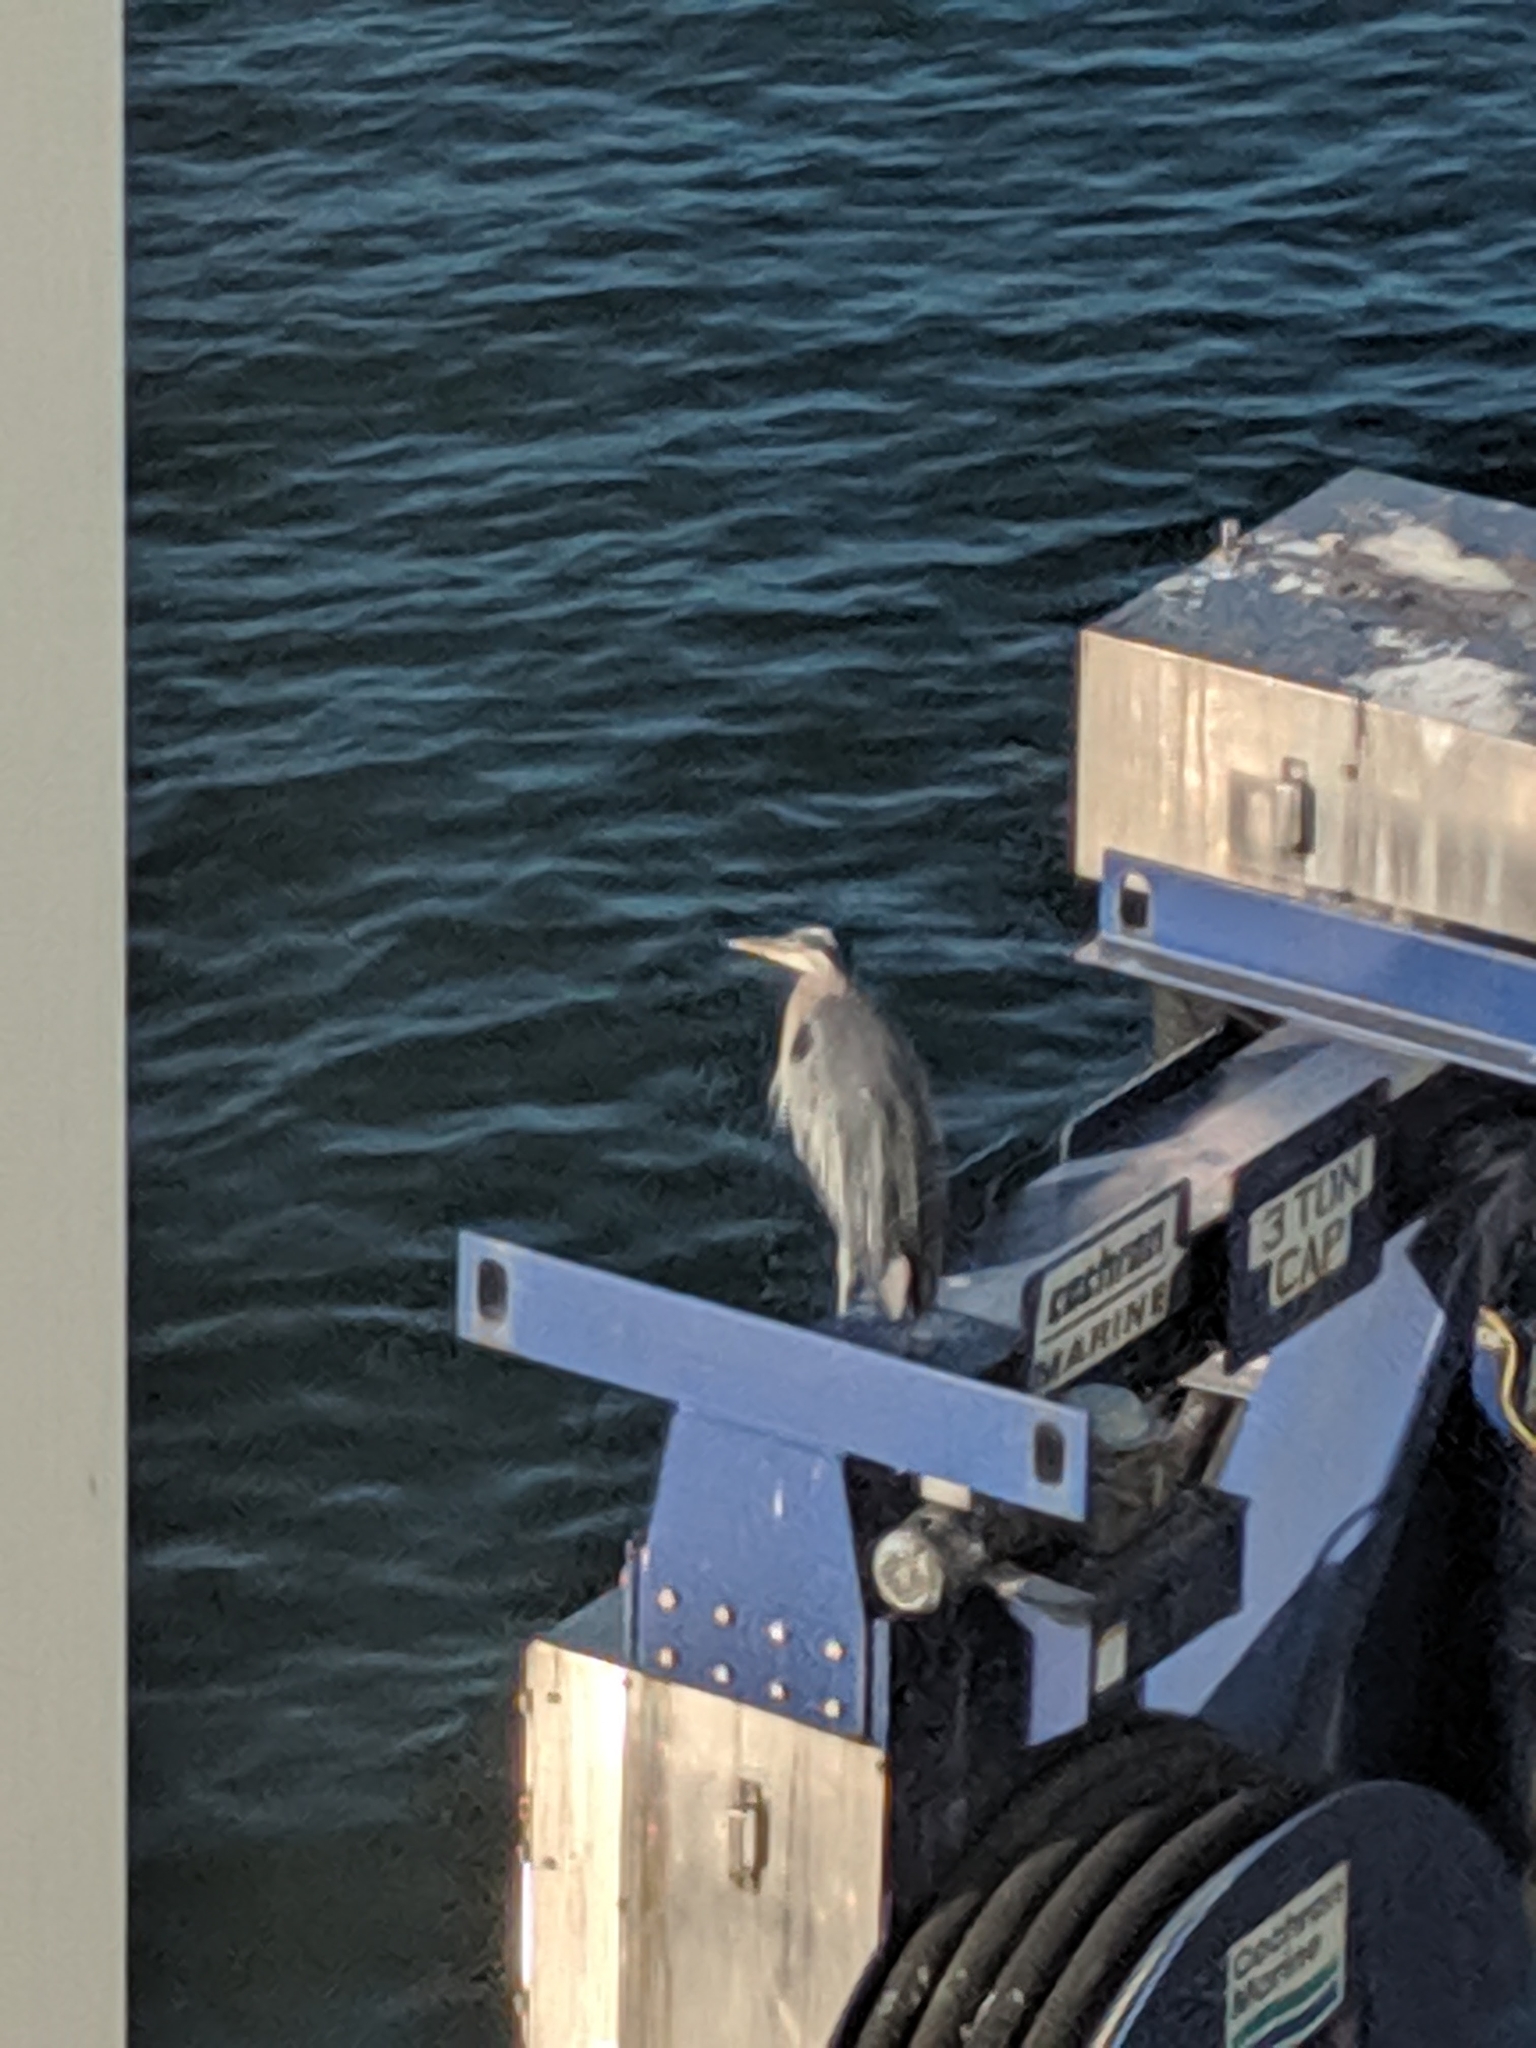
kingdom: Animalia
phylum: Chordata
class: Aves
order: Pelecaniformes
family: Ardeidae
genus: Ardea
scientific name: Ardea herodias
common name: Great blue heron
